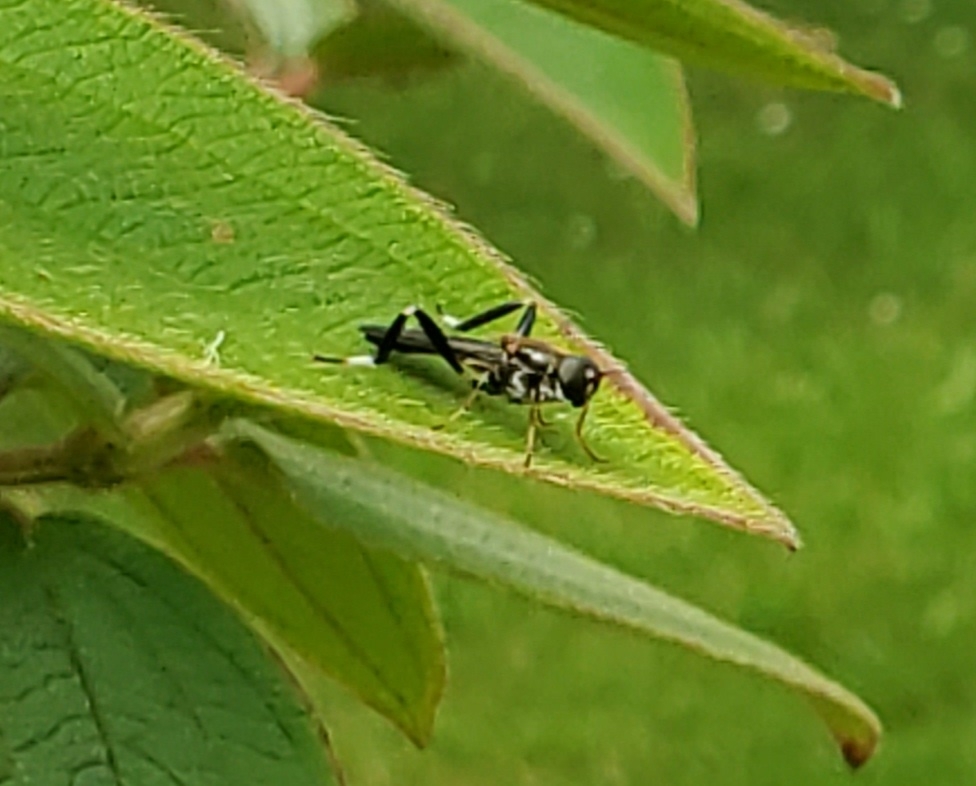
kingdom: Animalia
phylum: Arthropoda
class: Insecta
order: Diptera
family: Stratiomyidae
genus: Exaireta
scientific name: Exaireta spinigera
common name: Blue soldier fly
